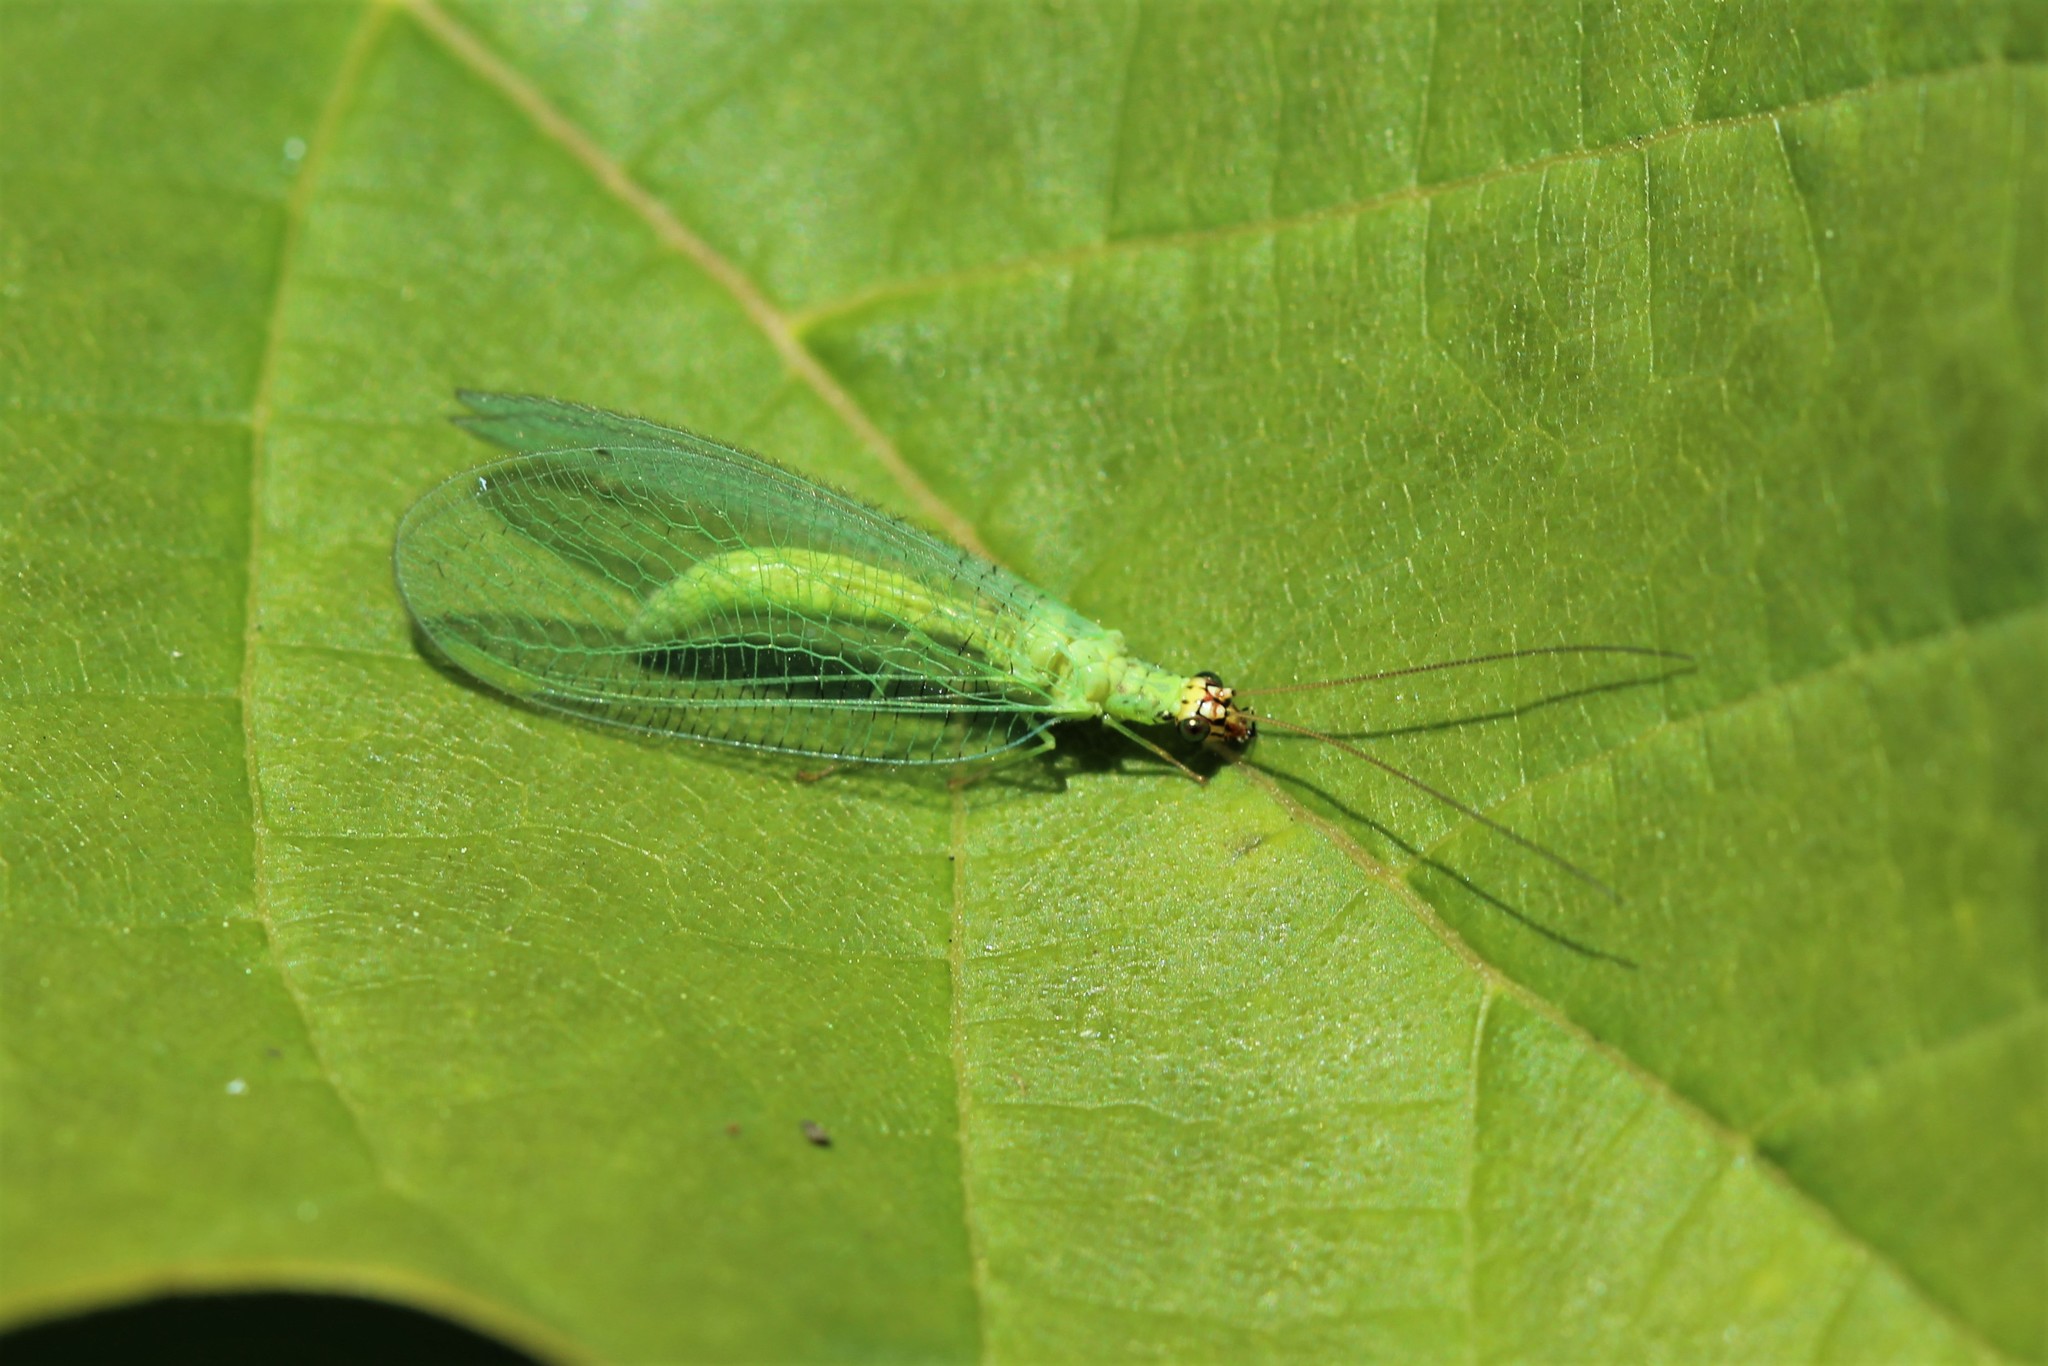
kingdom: Animalia
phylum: Arthropoda
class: Insecta
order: Neuroptera
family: Chrysopidae
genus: Chrysopa
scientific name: Chrysopa oculata
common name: Golden-eyed lacewing
